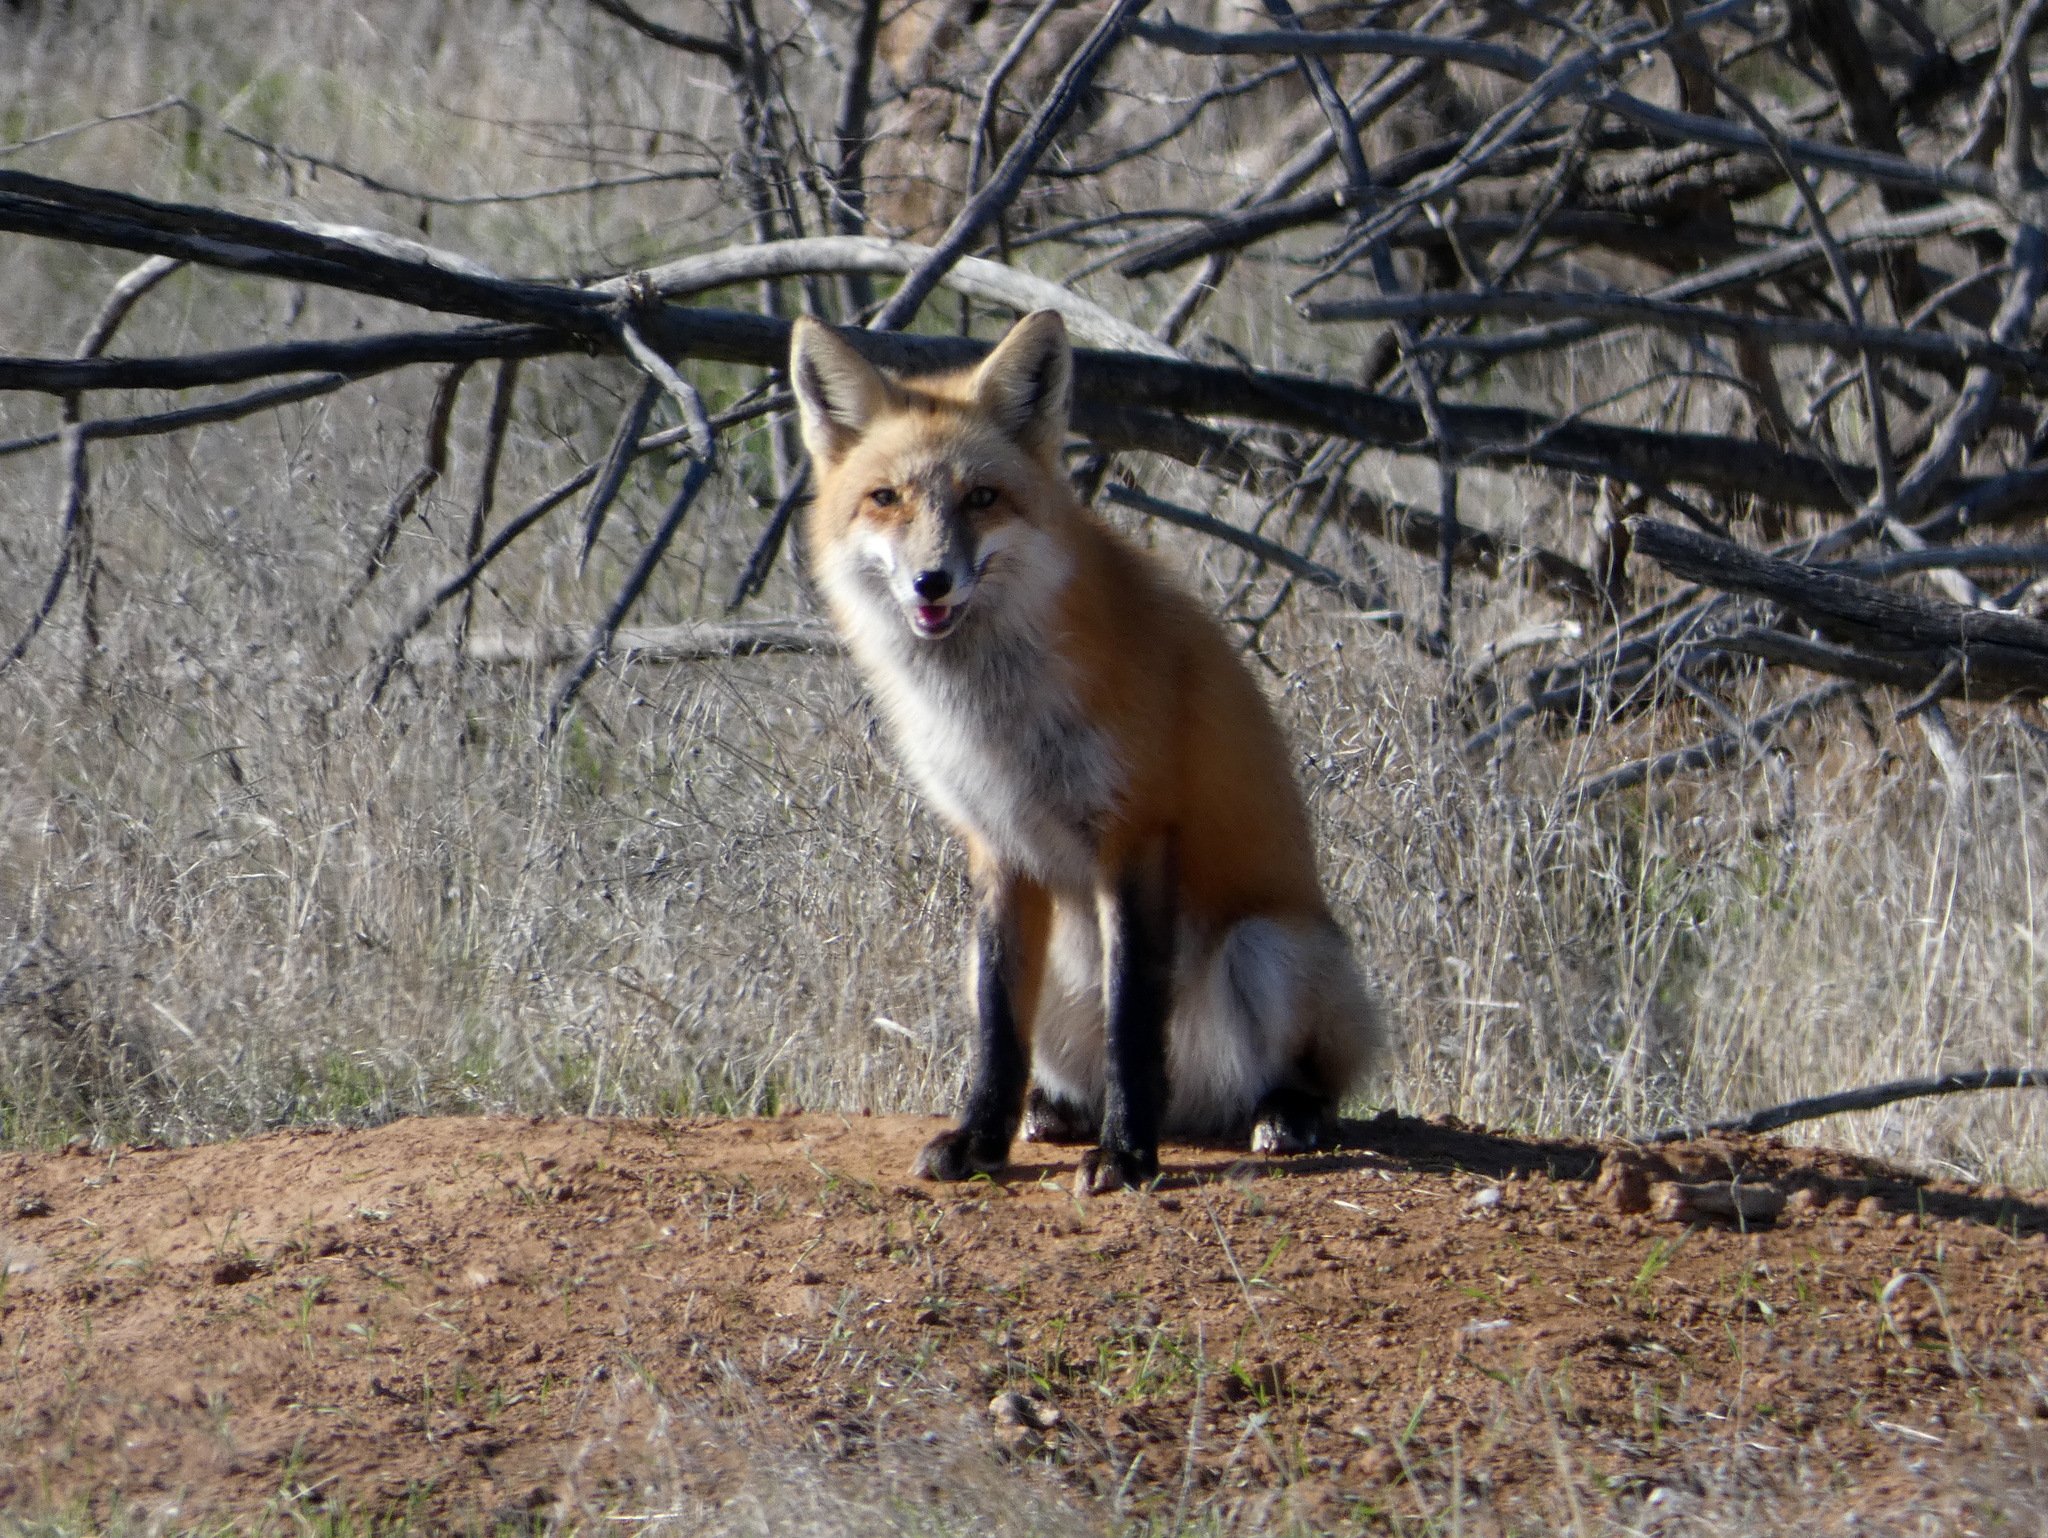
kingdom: Animalia
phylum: Chordata
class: Mammalia
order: Carnivora
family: Canidae
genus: Vulpes
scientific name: Vulpes vulpes
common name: Red fox
